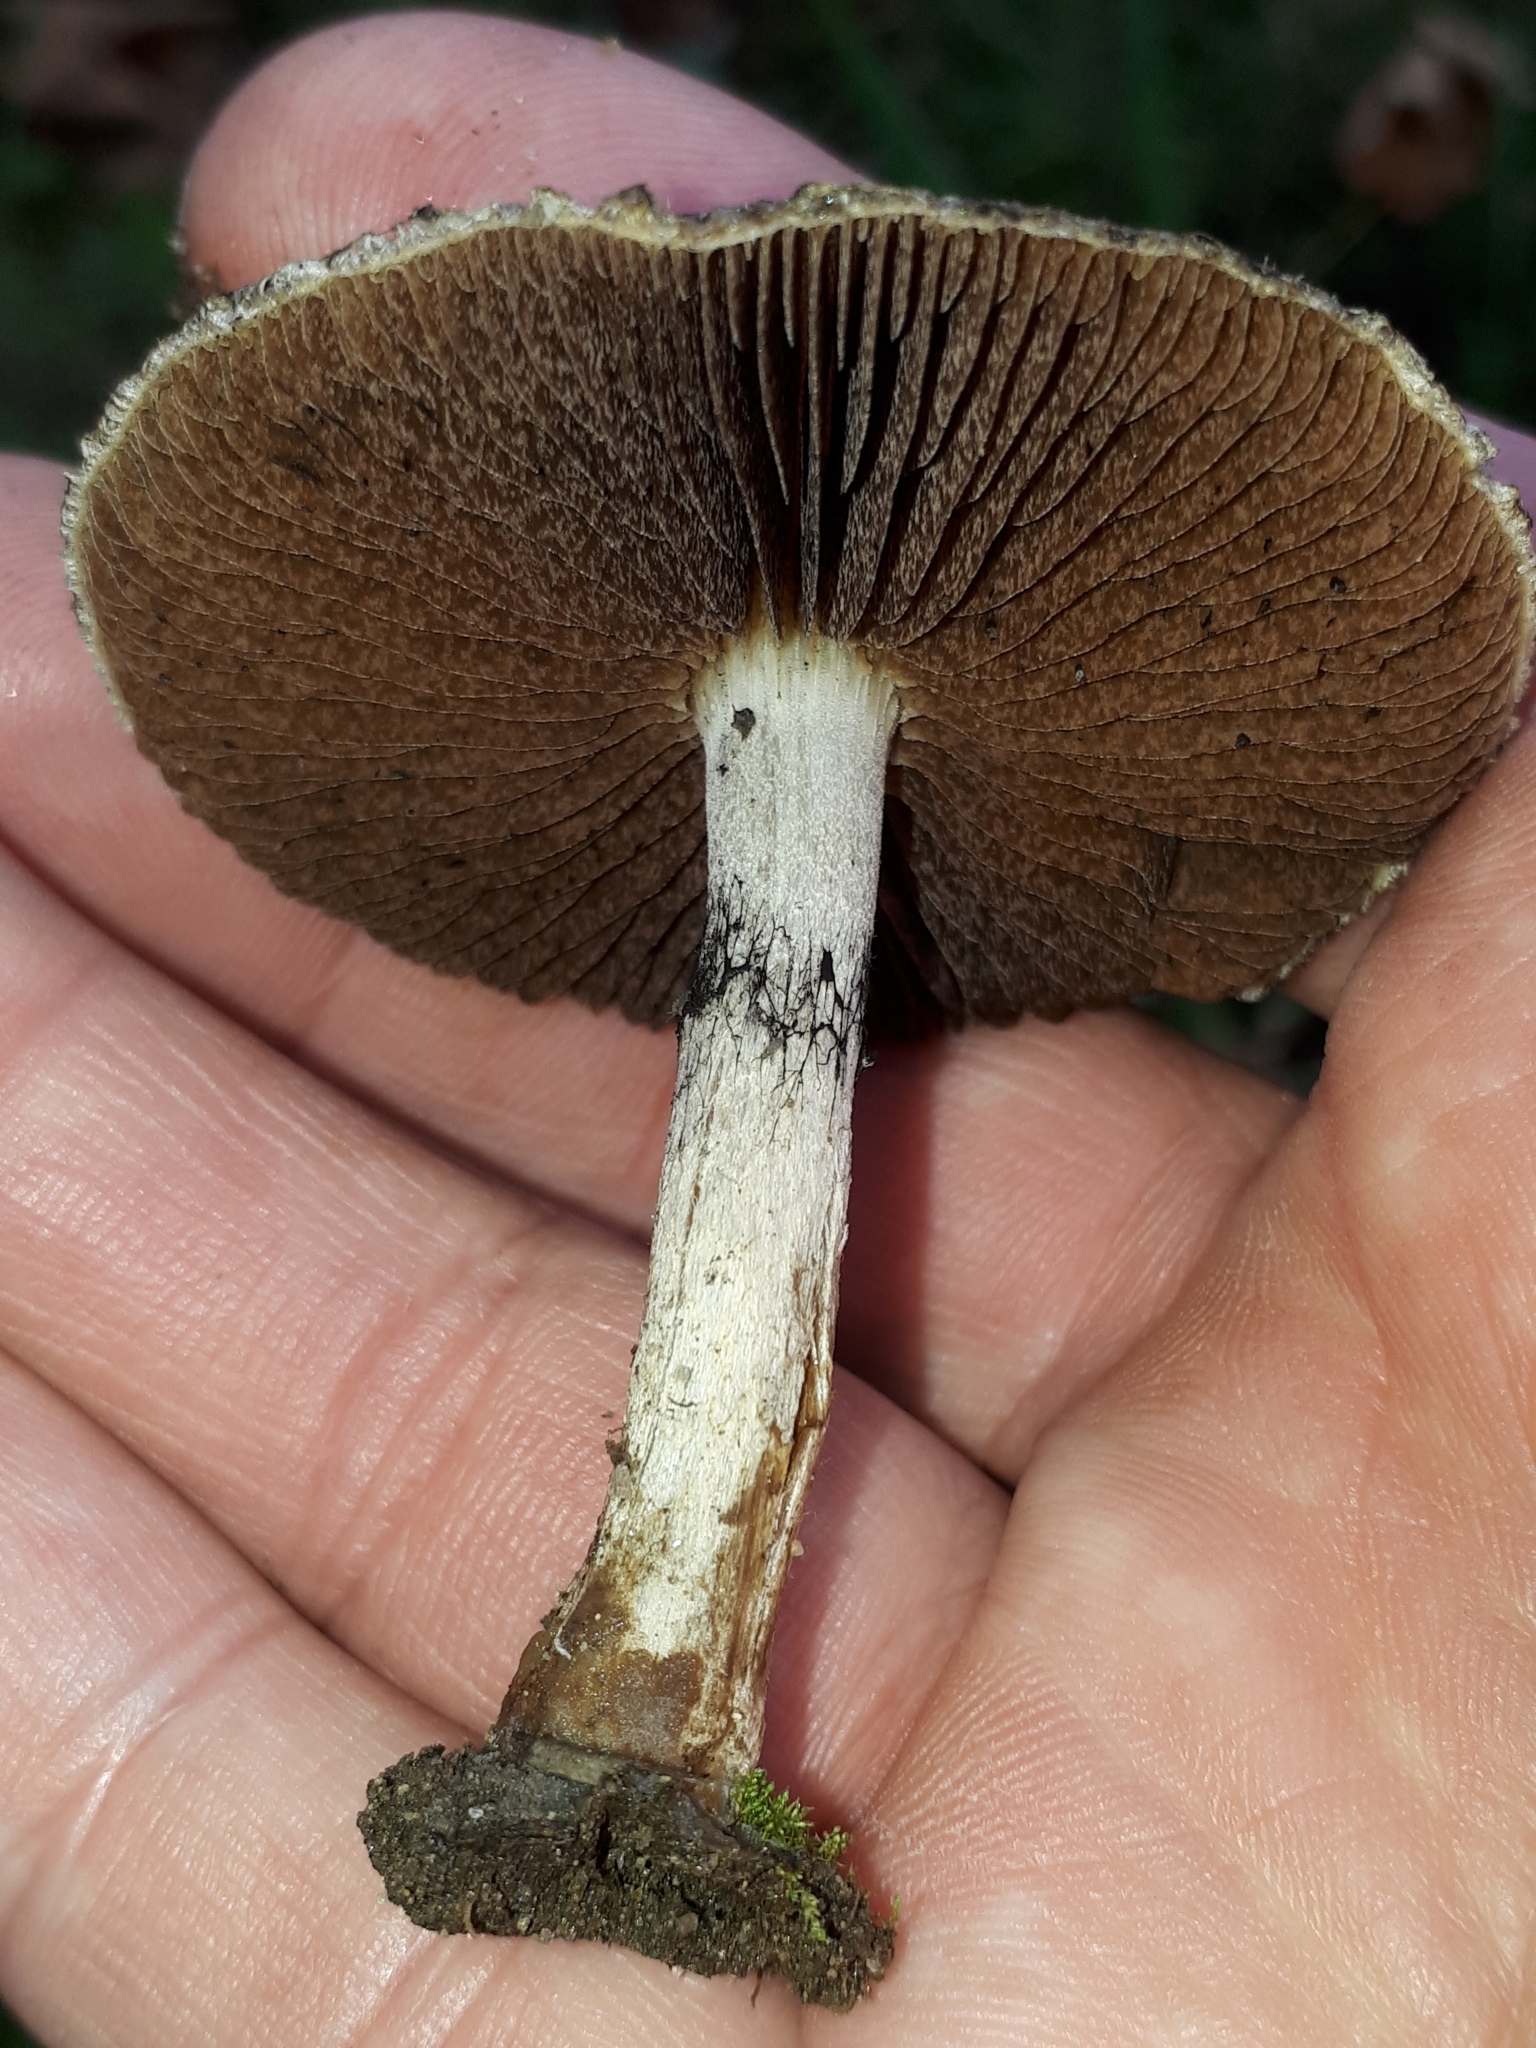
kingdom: Fungi
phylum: Basidiomycota
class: Agaricomycetes
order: Agaricales
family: Psathyrellaceae
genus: Lacrymaria
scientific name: Lacrymaria lacrymabunda
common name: Weeping widow
